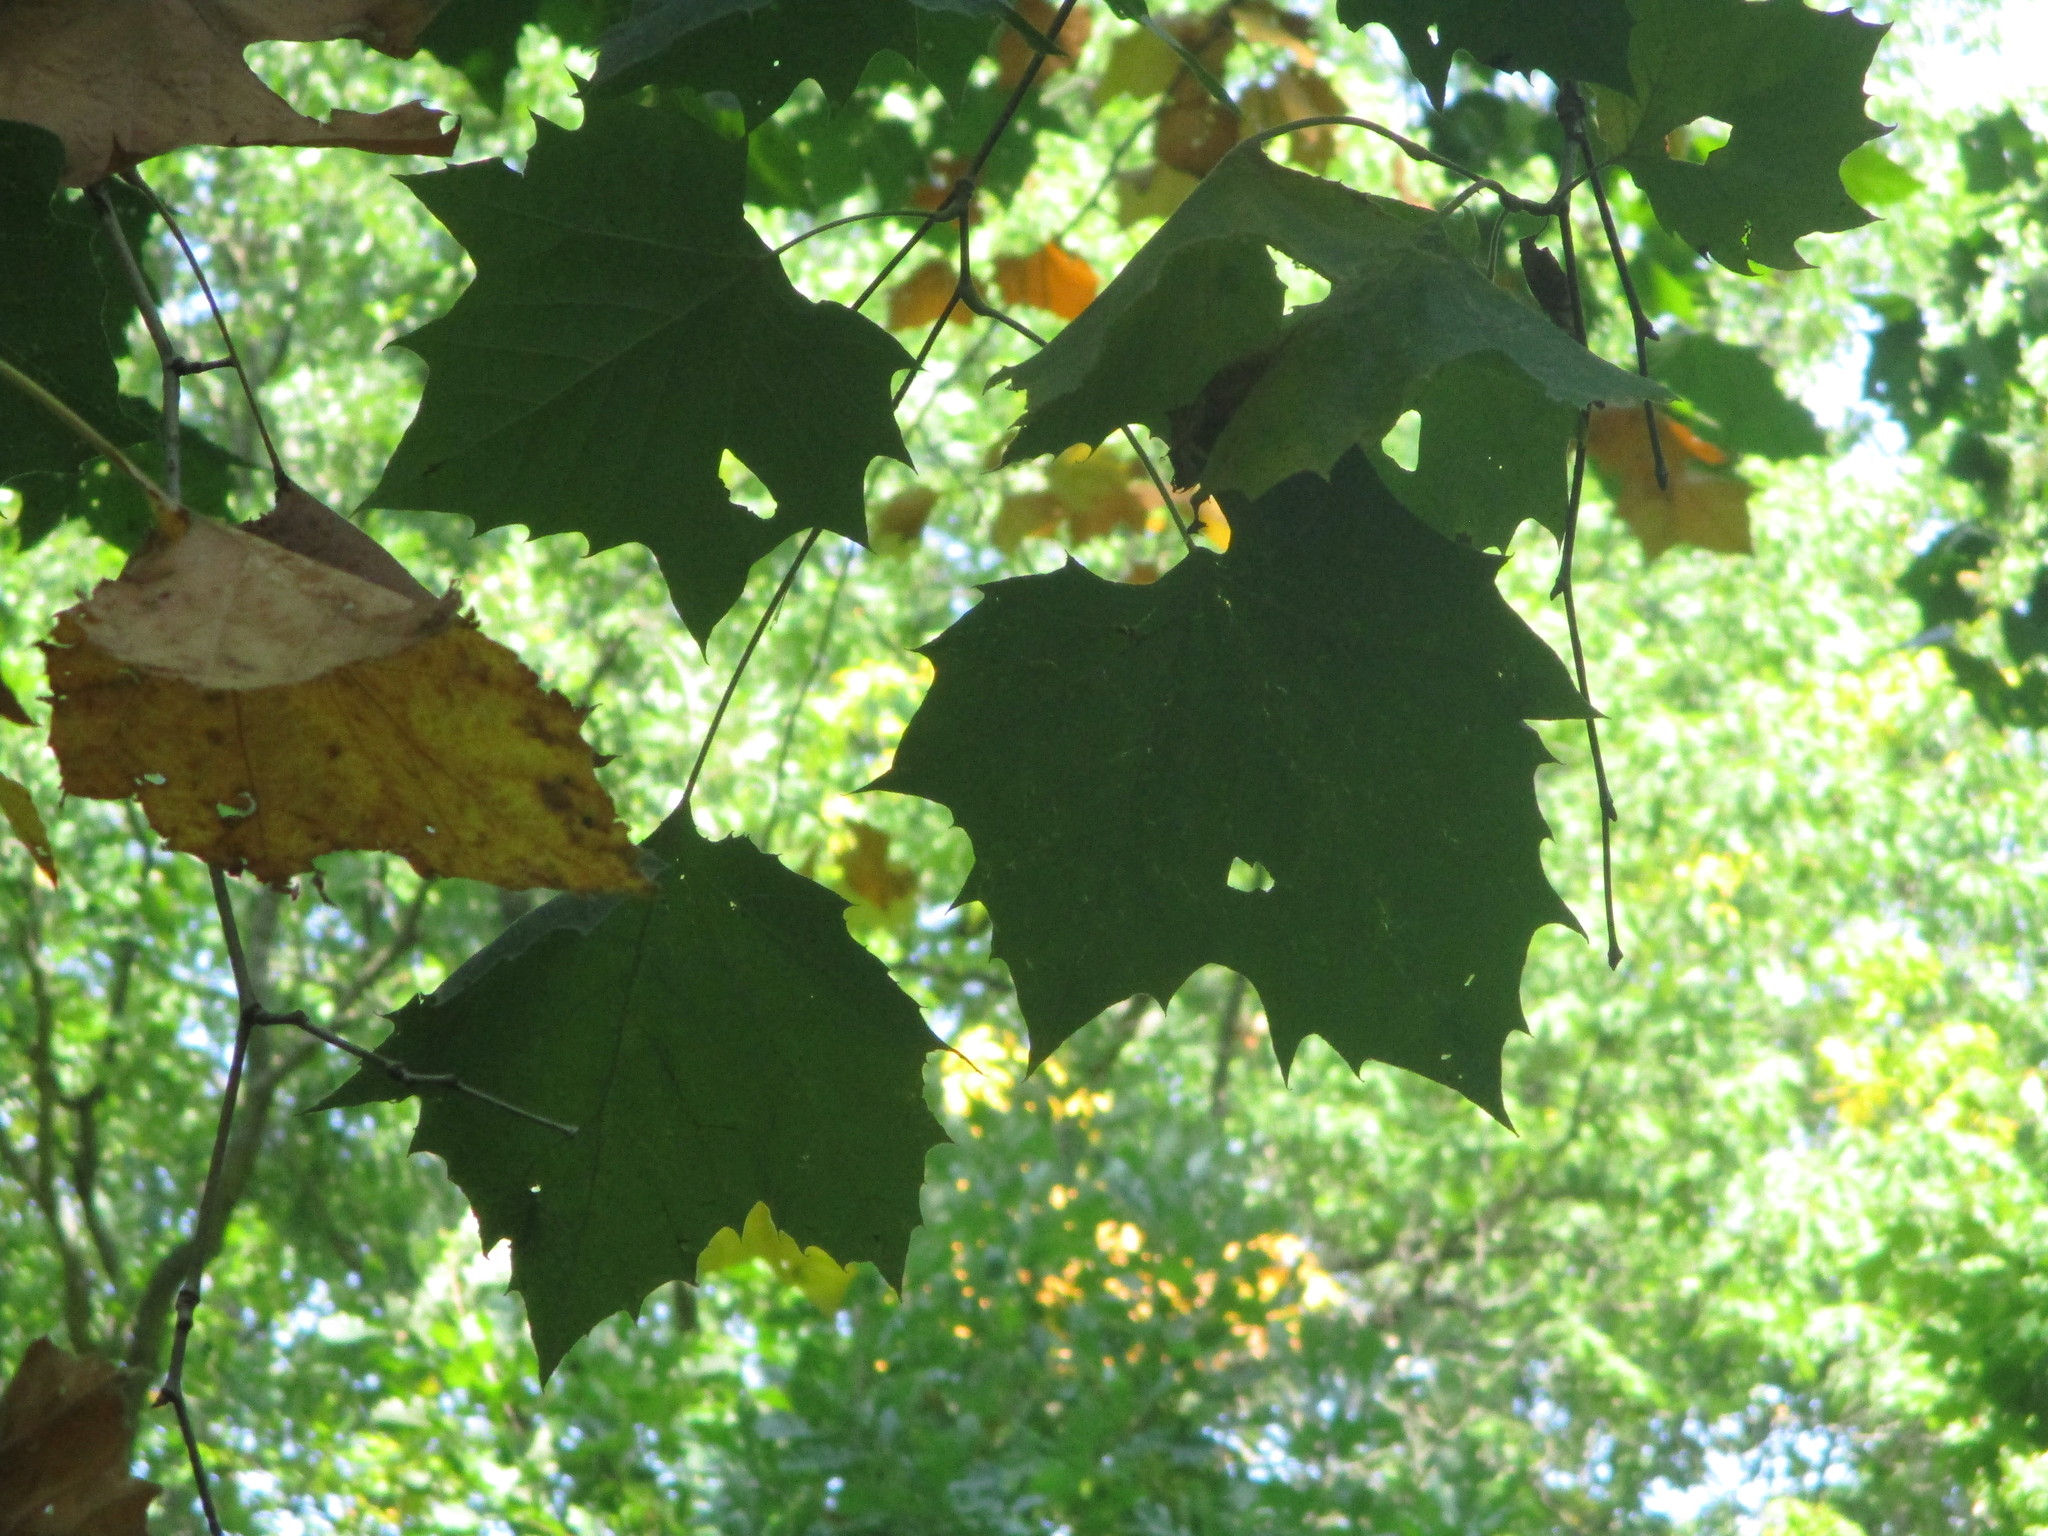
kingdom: Plantae
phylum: Tracheophyta
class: Magnoliopsida
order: Proteales
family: Platanaceae
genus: Platanus
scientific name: Platanus occidentalis
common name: American sycamore
